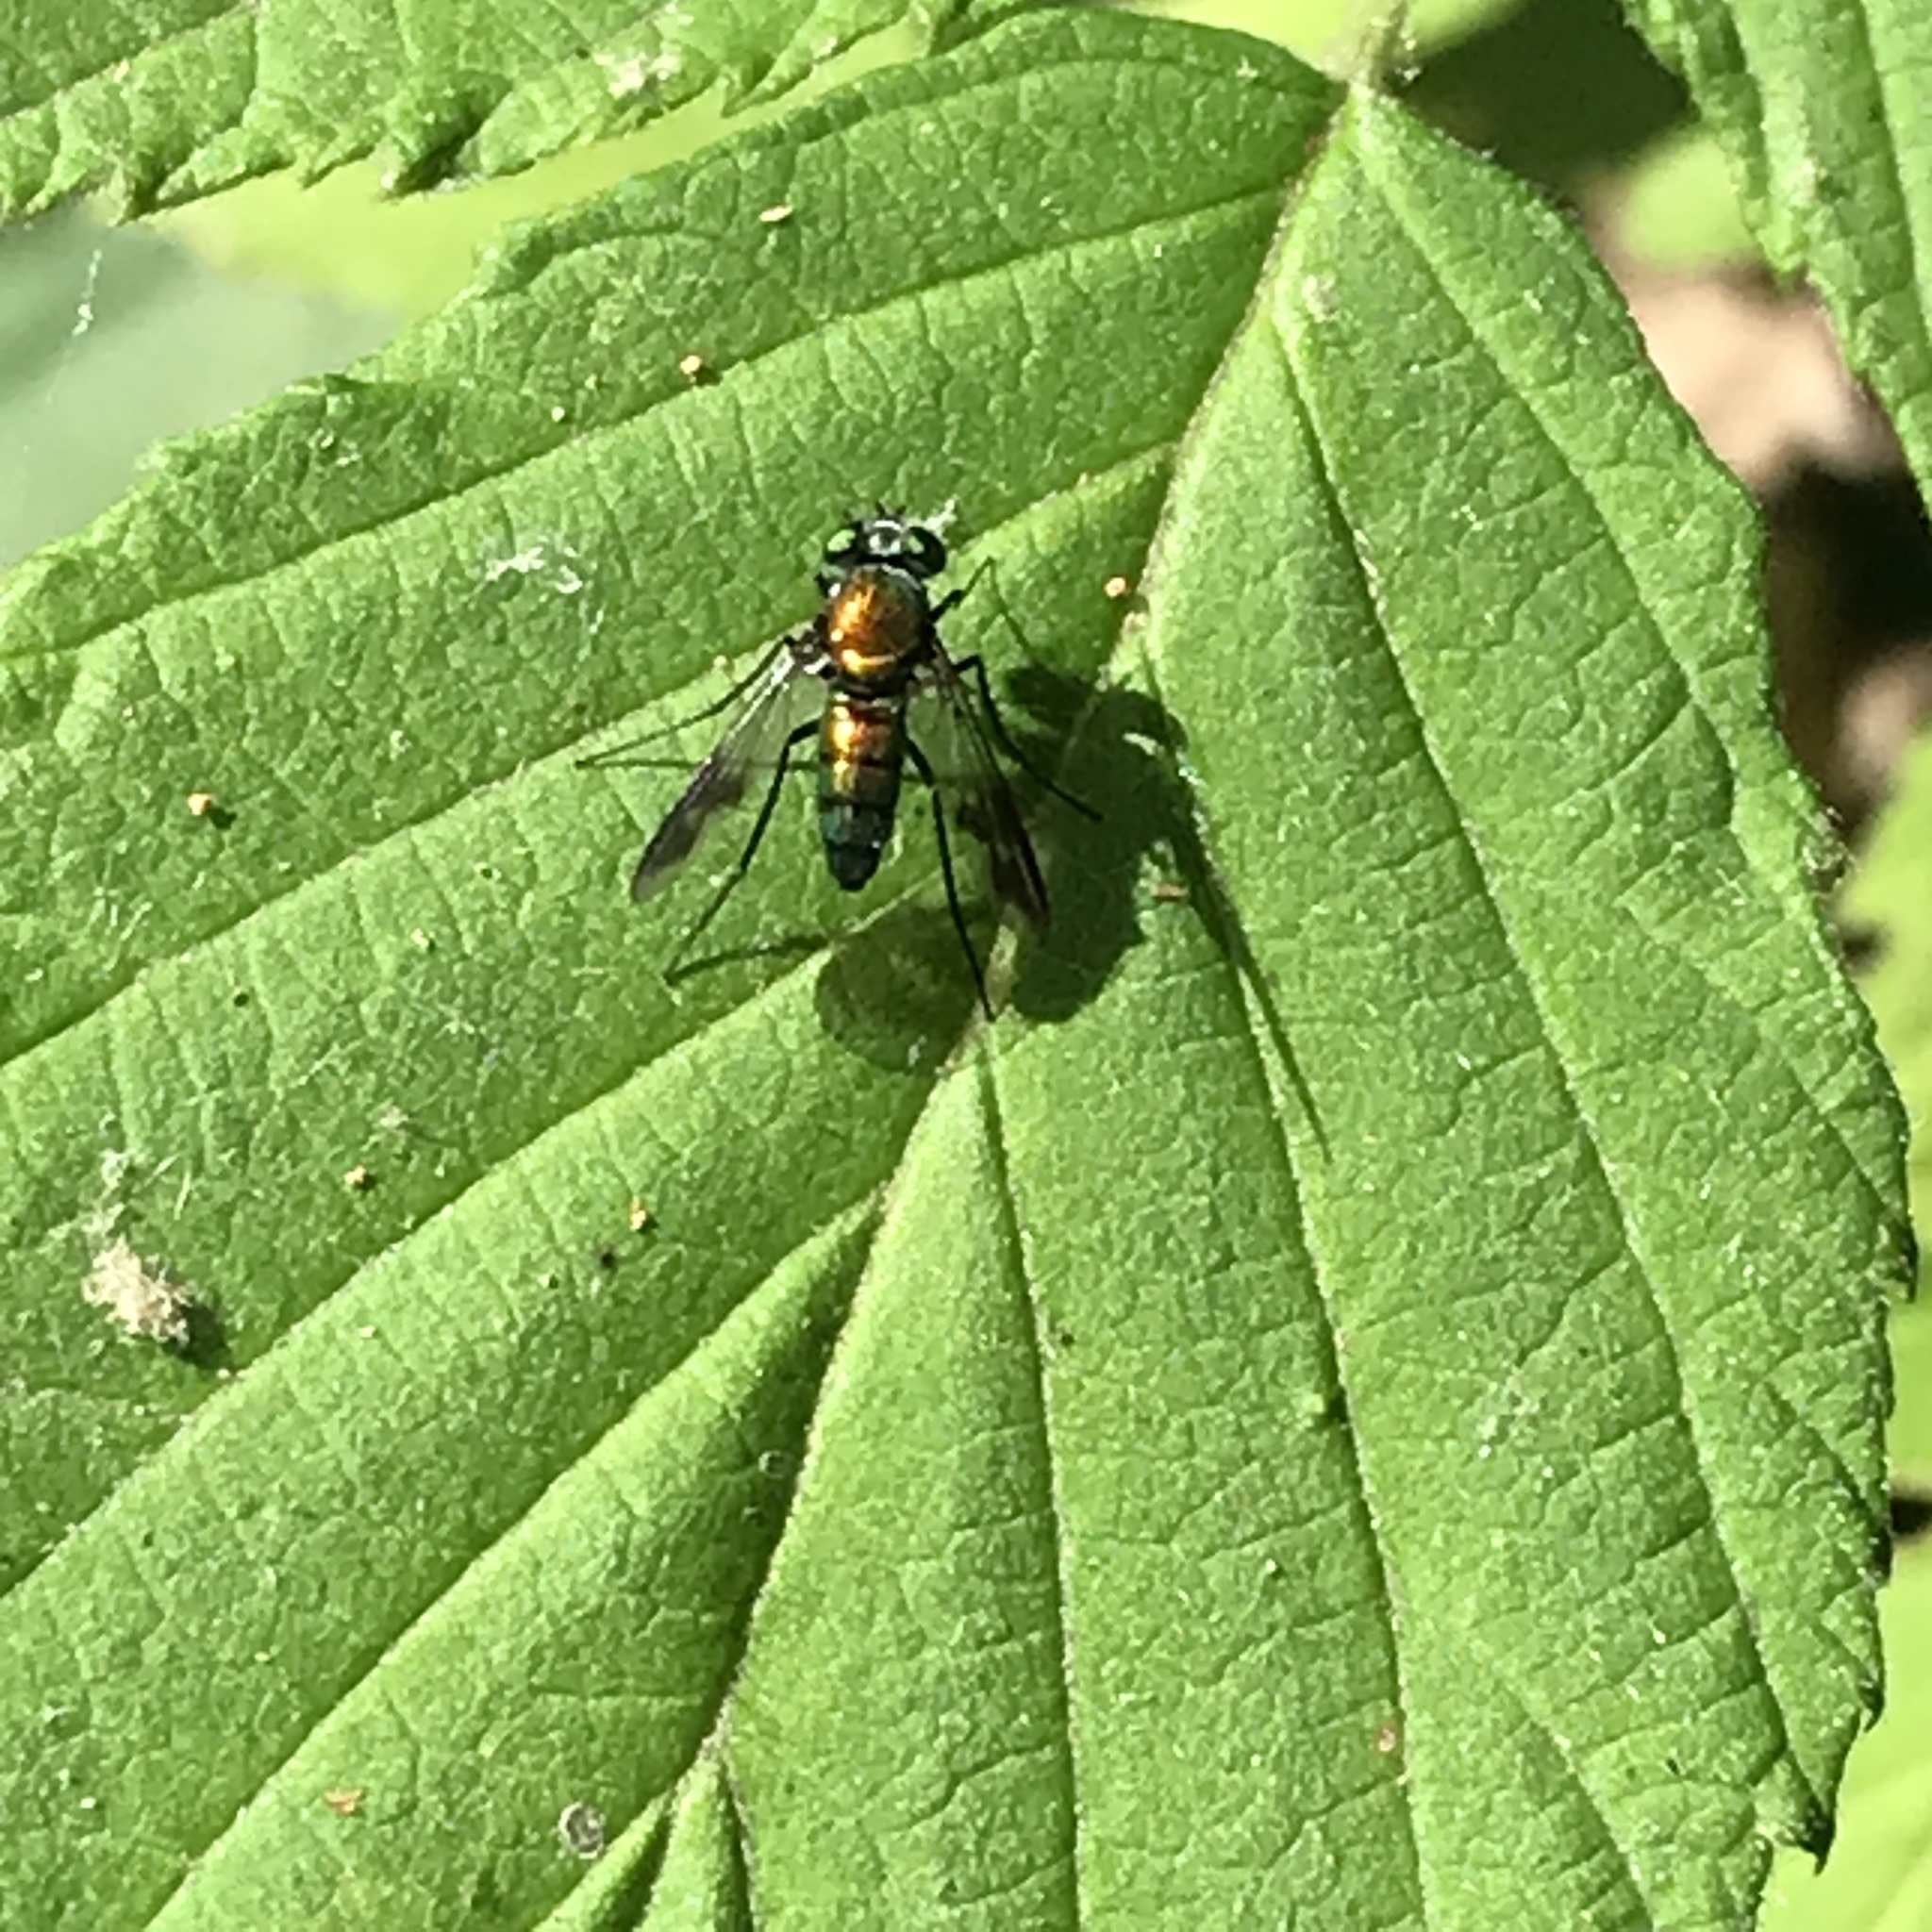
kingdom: Animalia
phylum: Arthropoda
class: Insecta
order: Diptera
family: Dolichopodidae
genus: Condylostylus
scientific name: Condylostylus patibulatus
